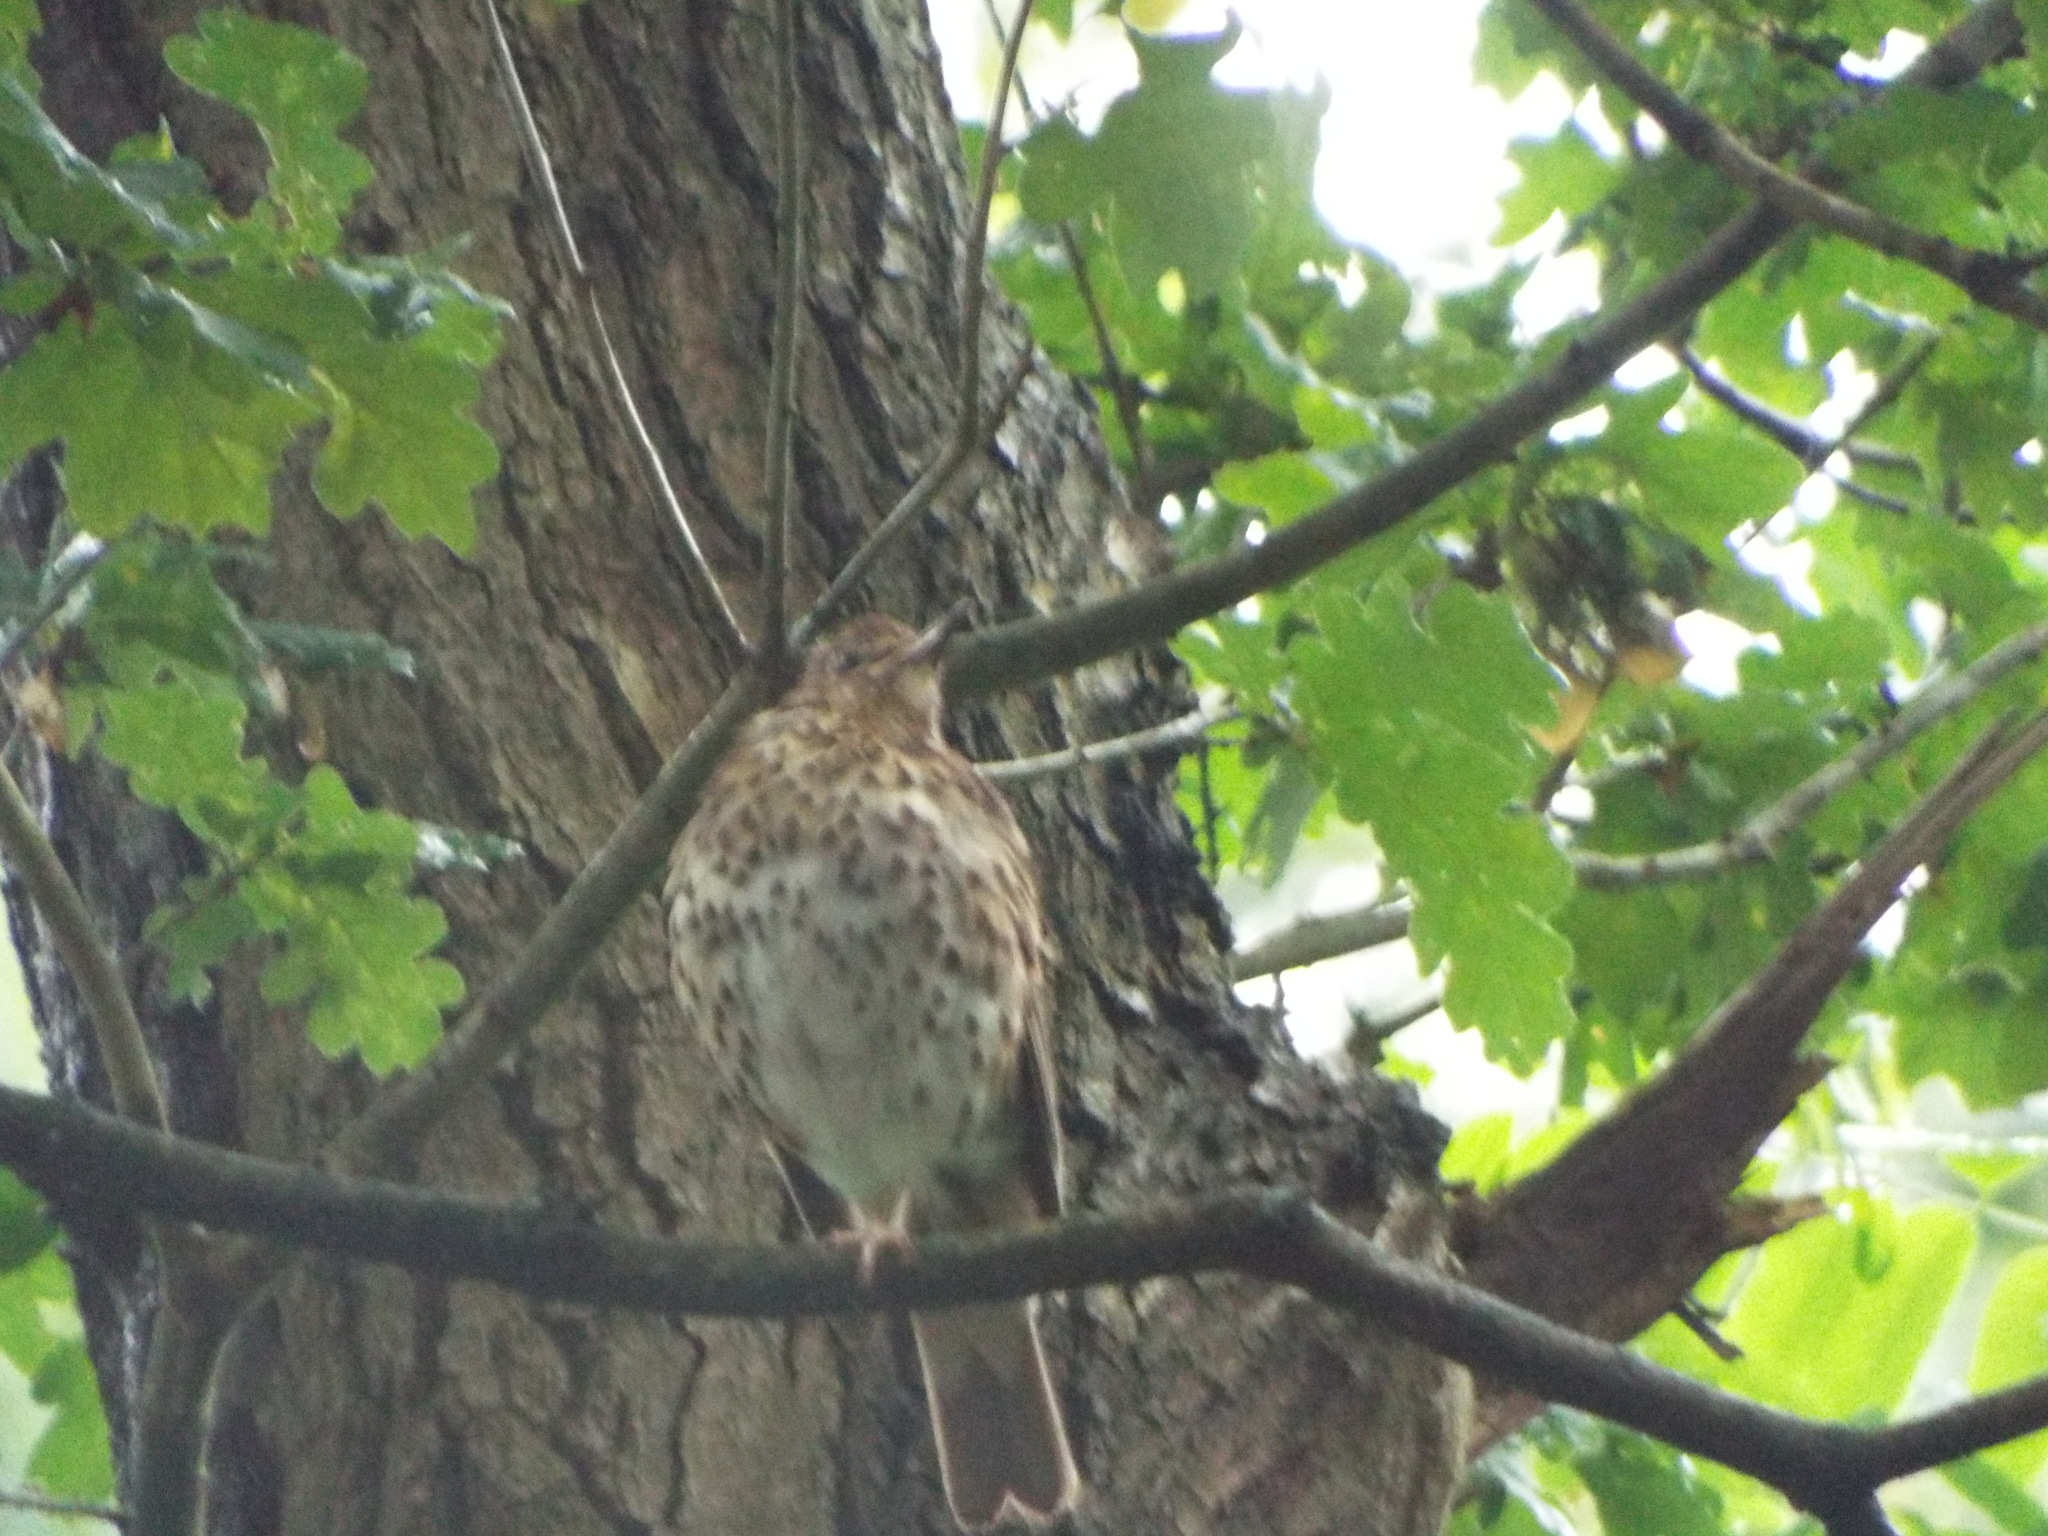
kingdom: Animalia
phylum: Chordata
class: Aves
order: Passeriformes
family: Turdidae
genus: Turdus
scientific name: Turdus philomelos
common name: Song thrush
